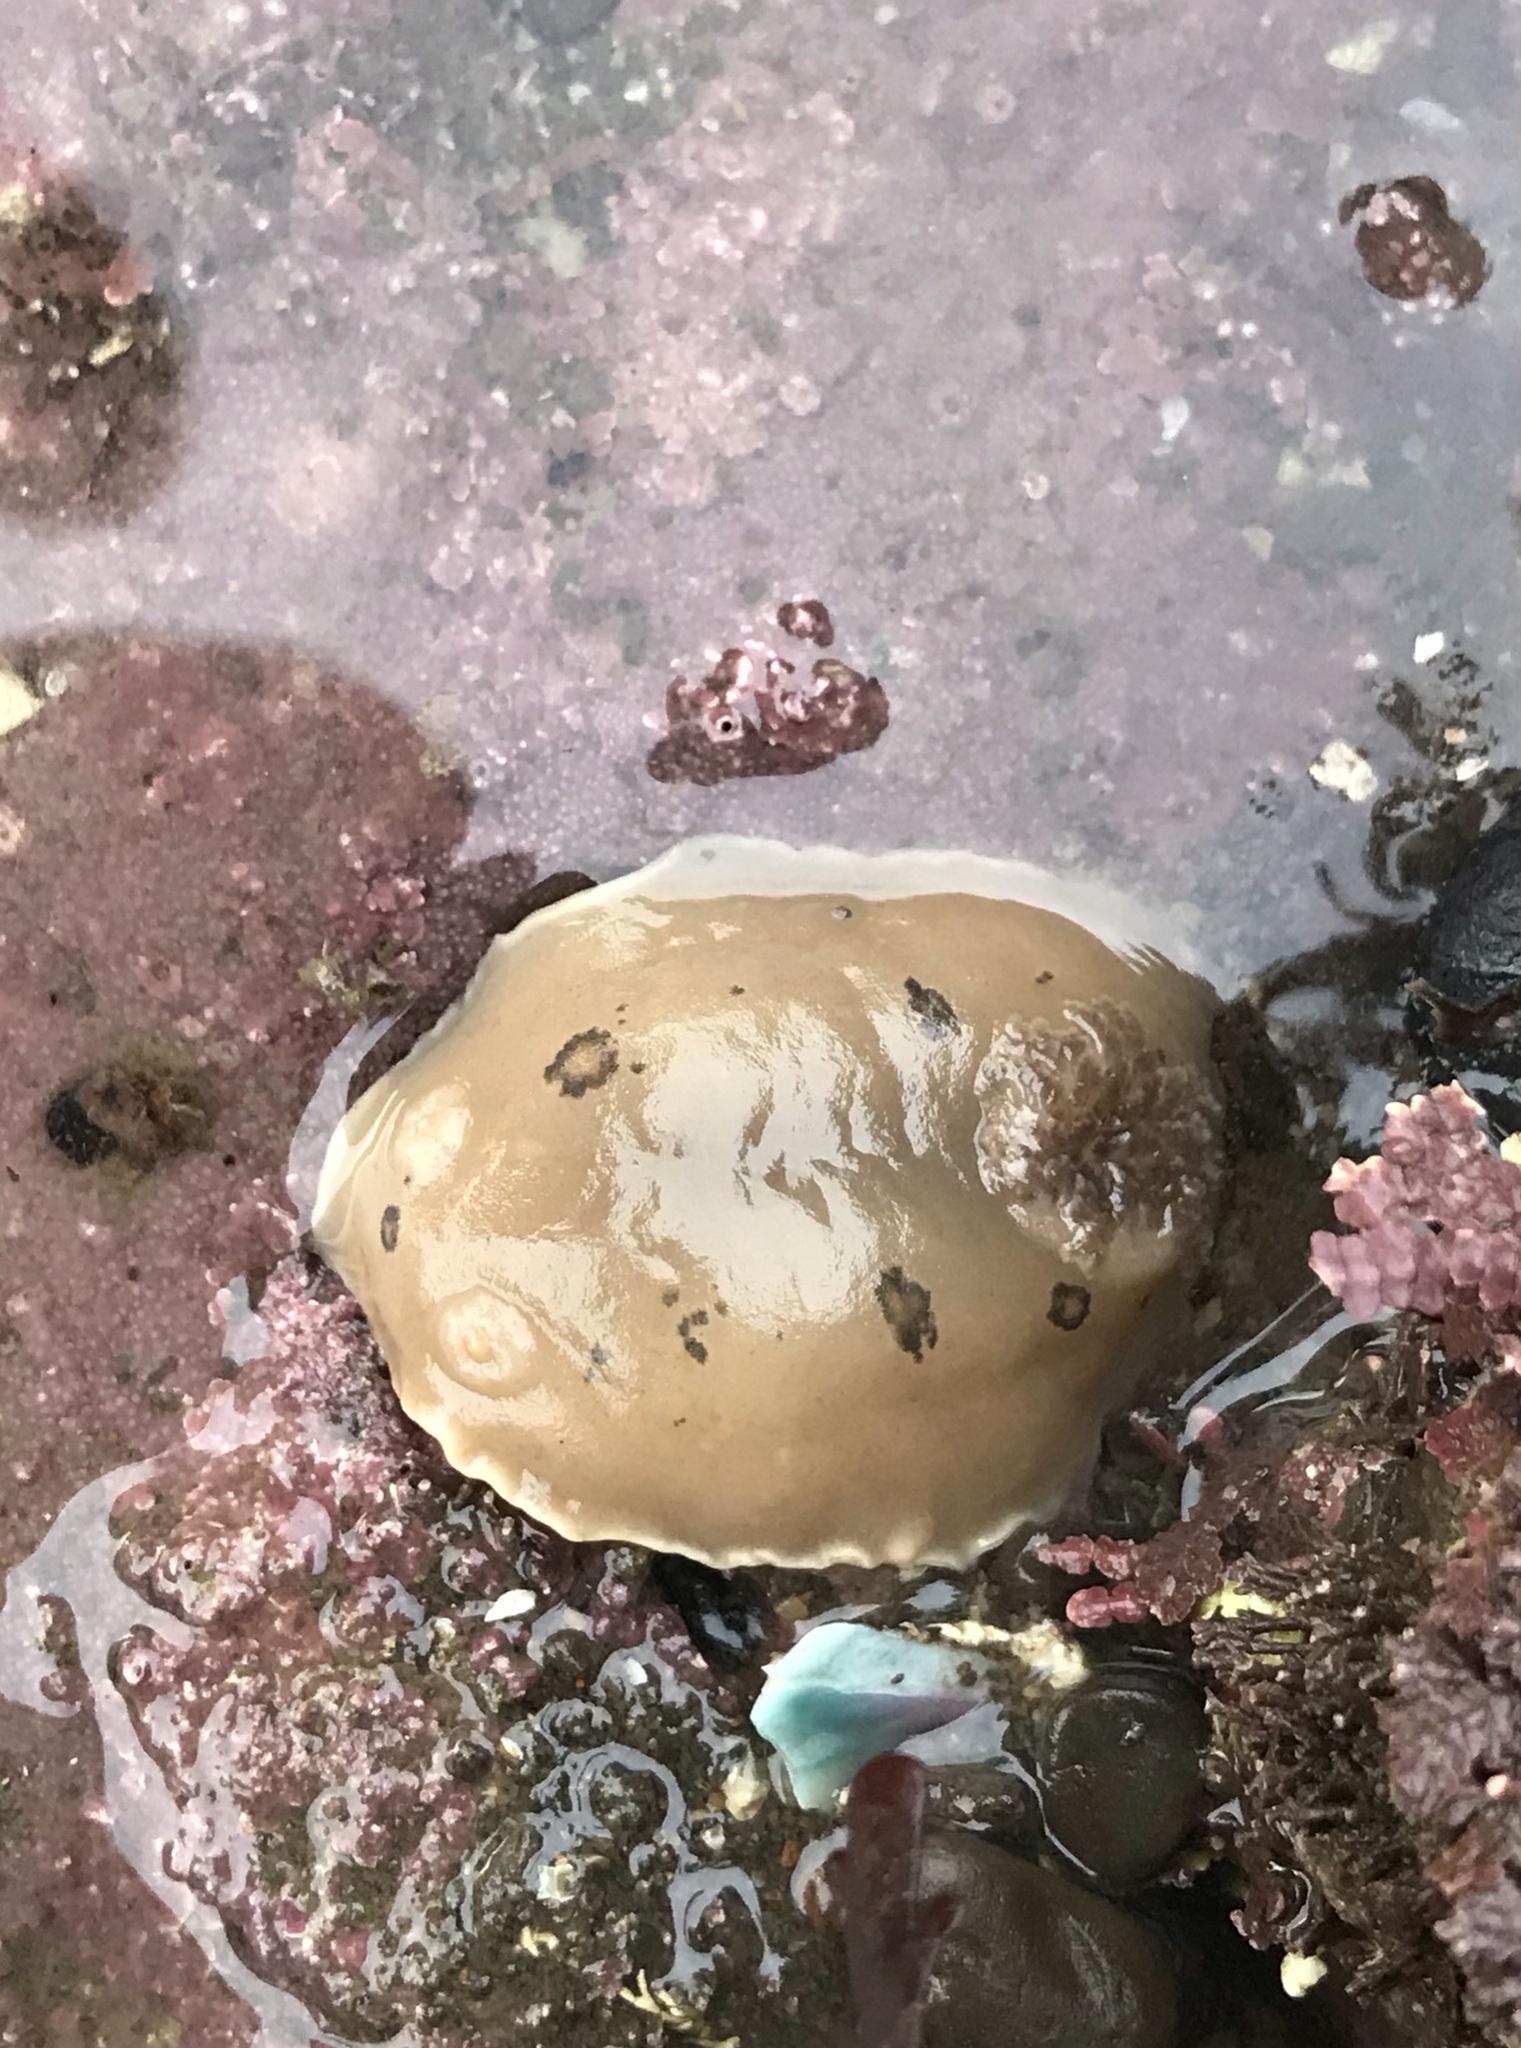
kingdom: Animalia
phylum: Mollusca
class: Gastropoda
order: Nudibranchia
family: Discodorididae
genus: Diaulula
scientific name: Diaulula sandiegensis
